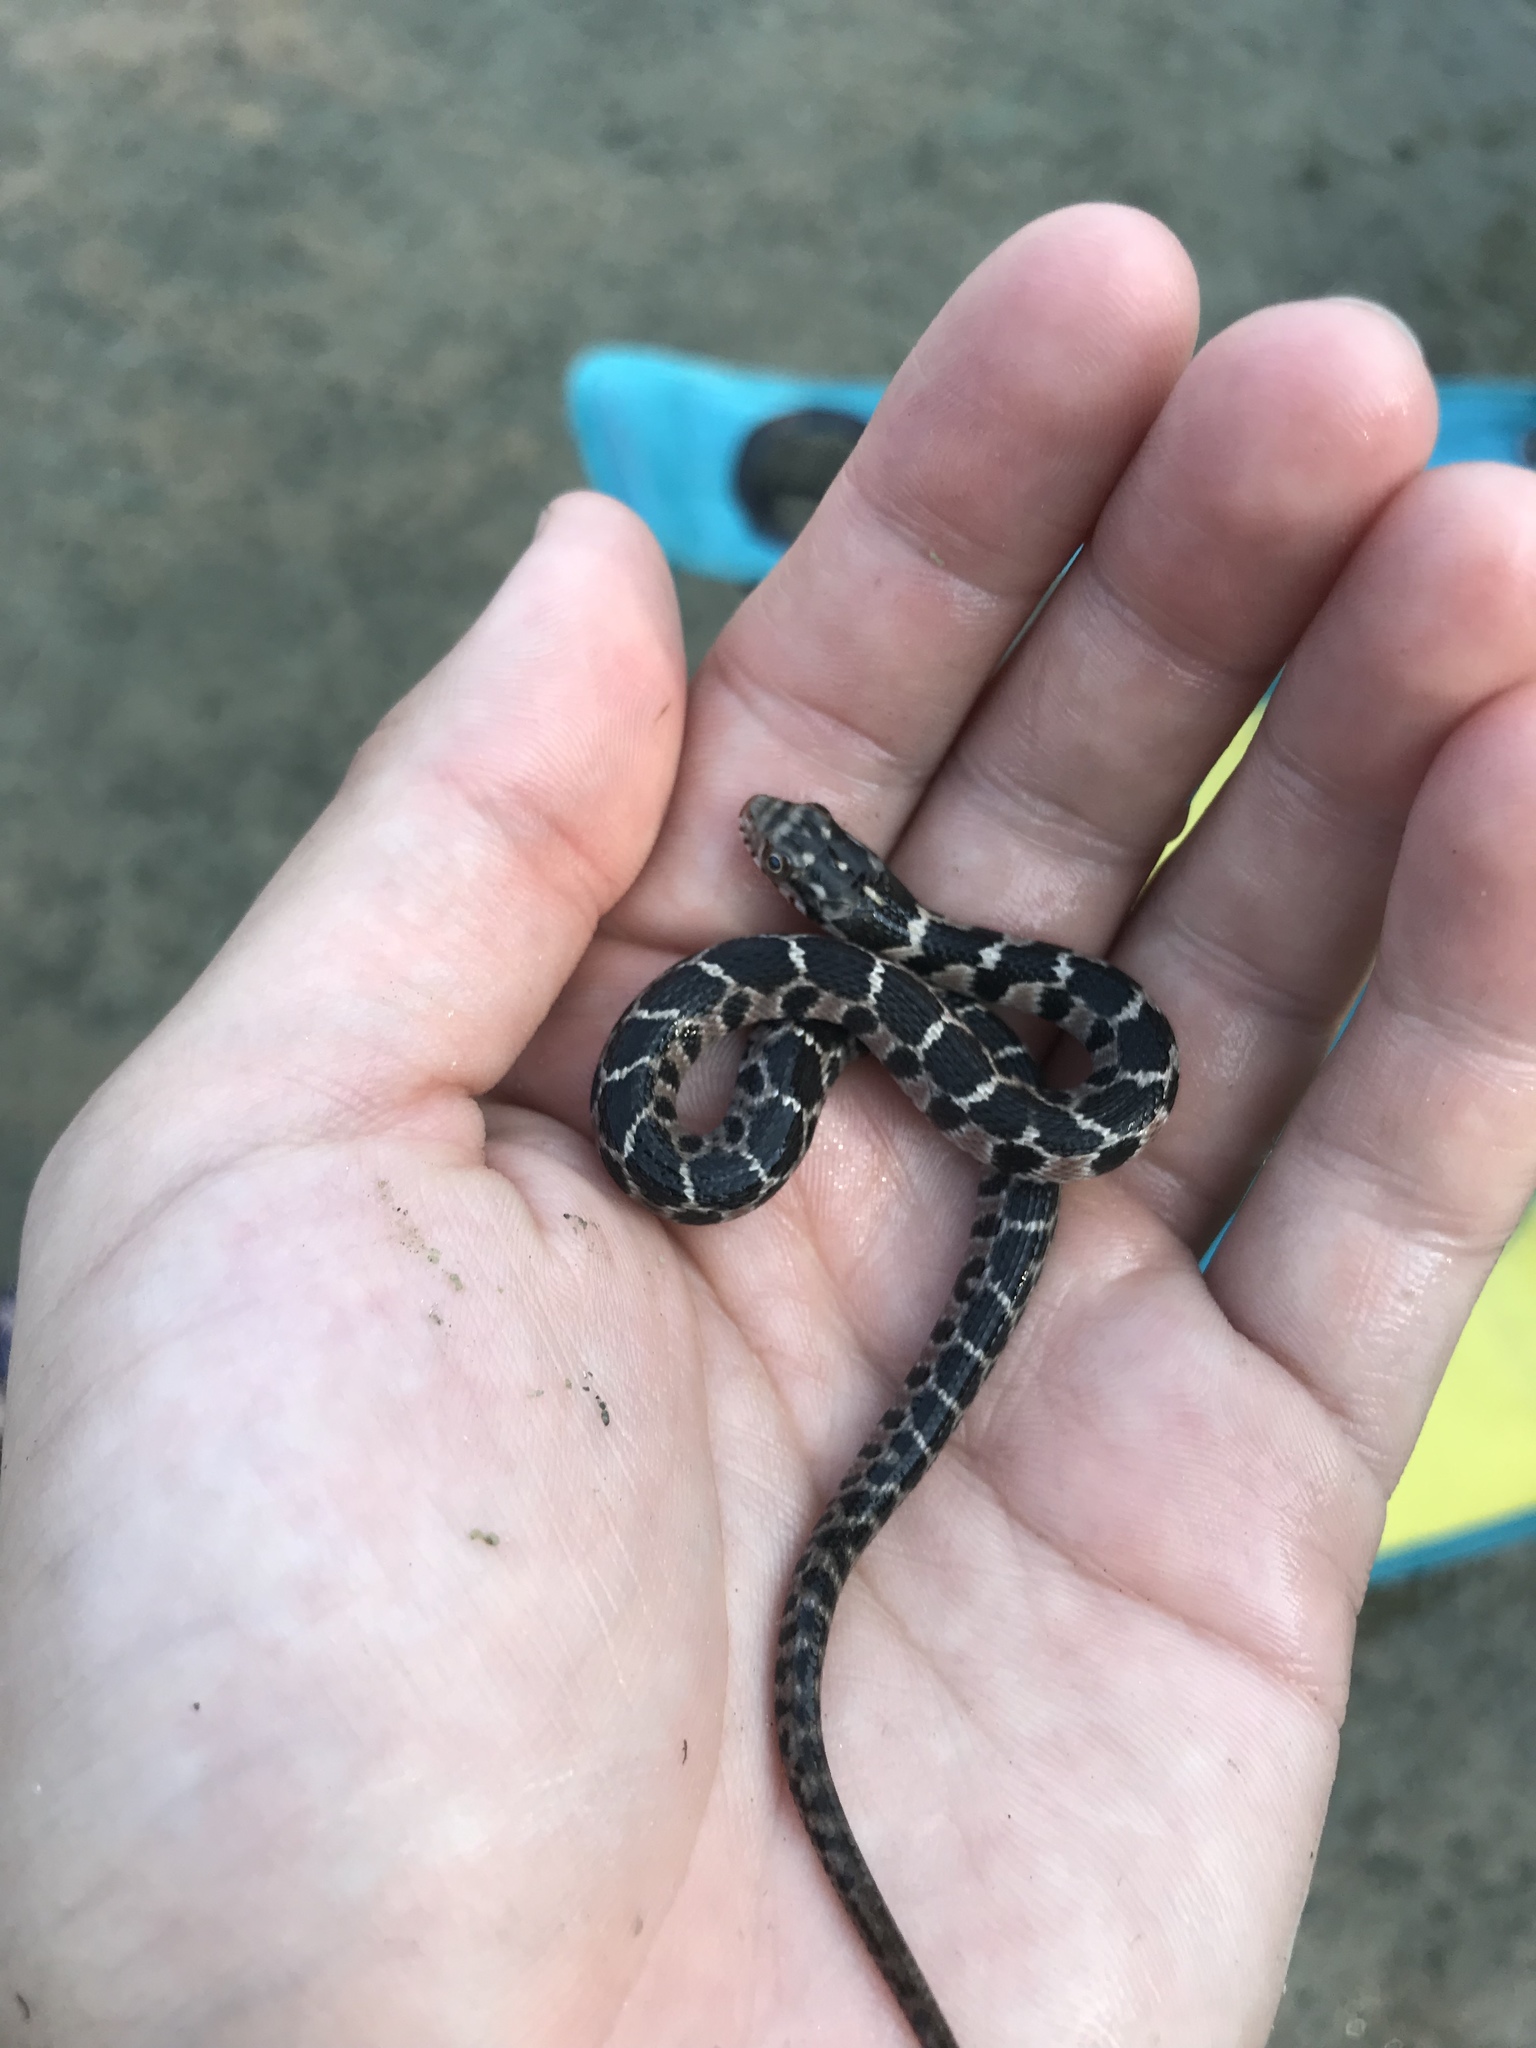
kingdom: Animalia
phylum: Chordata
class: Squamata
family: Colubridae
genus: Nerodia
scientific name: Nerodia erythrogaster
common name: Plainbelly water snake
